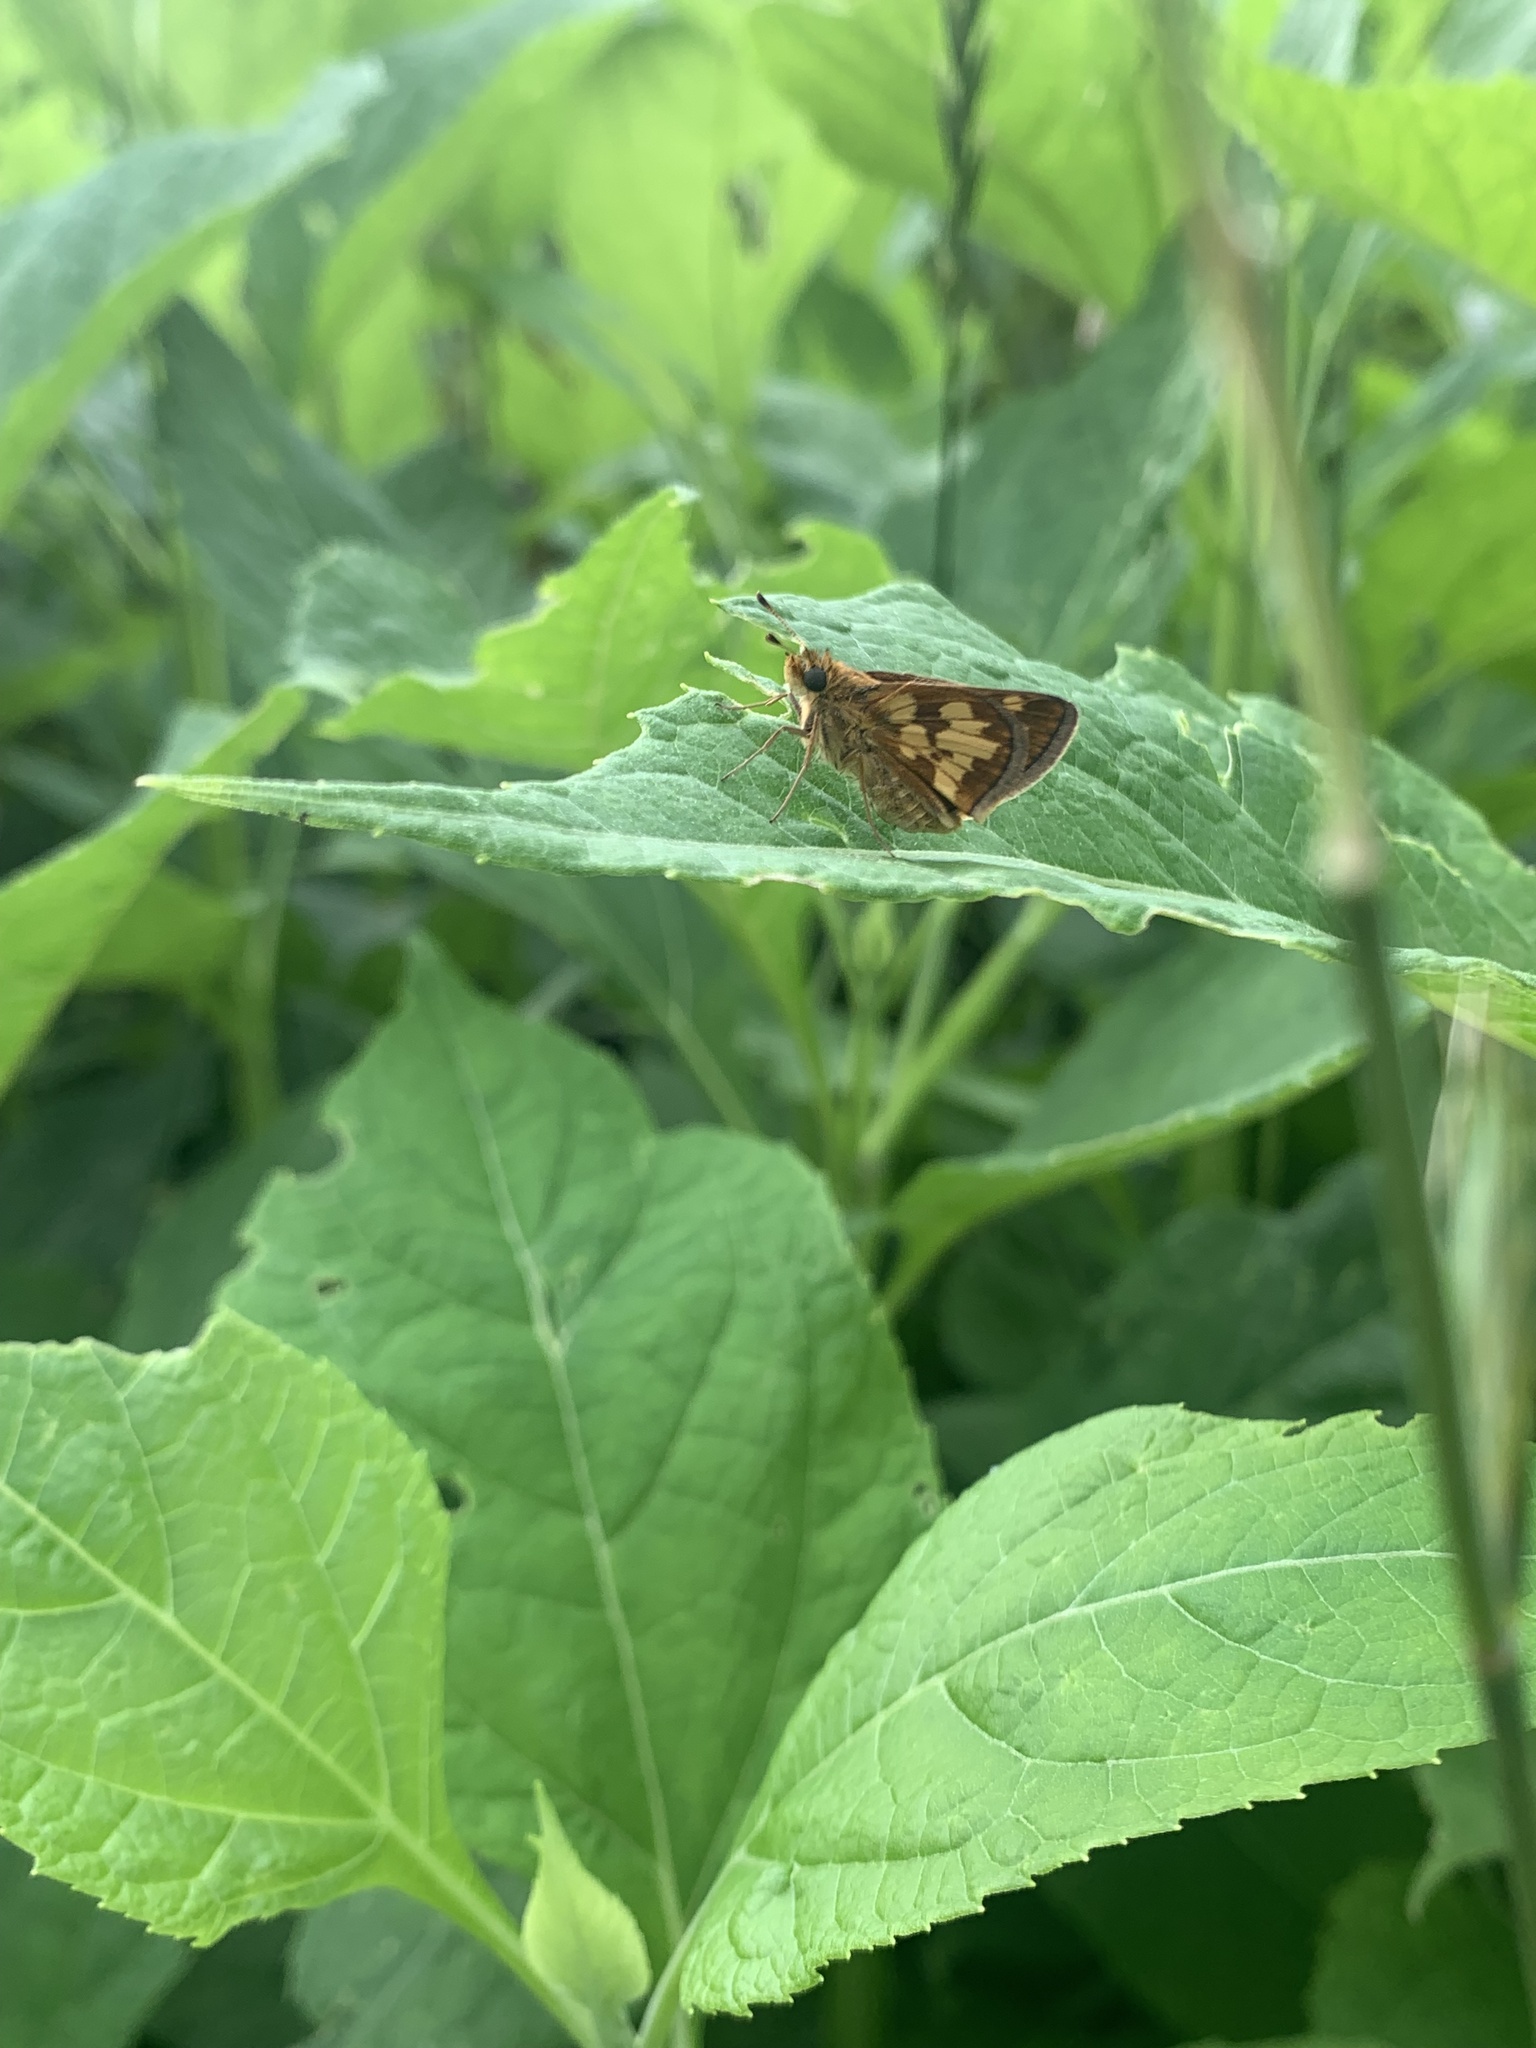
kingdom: Animalia
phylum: Arthropoda
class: Insecta
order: Lepidoptera
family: Hesperiidae
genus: Polites
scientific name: Polites coras
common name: Peck's skipper
